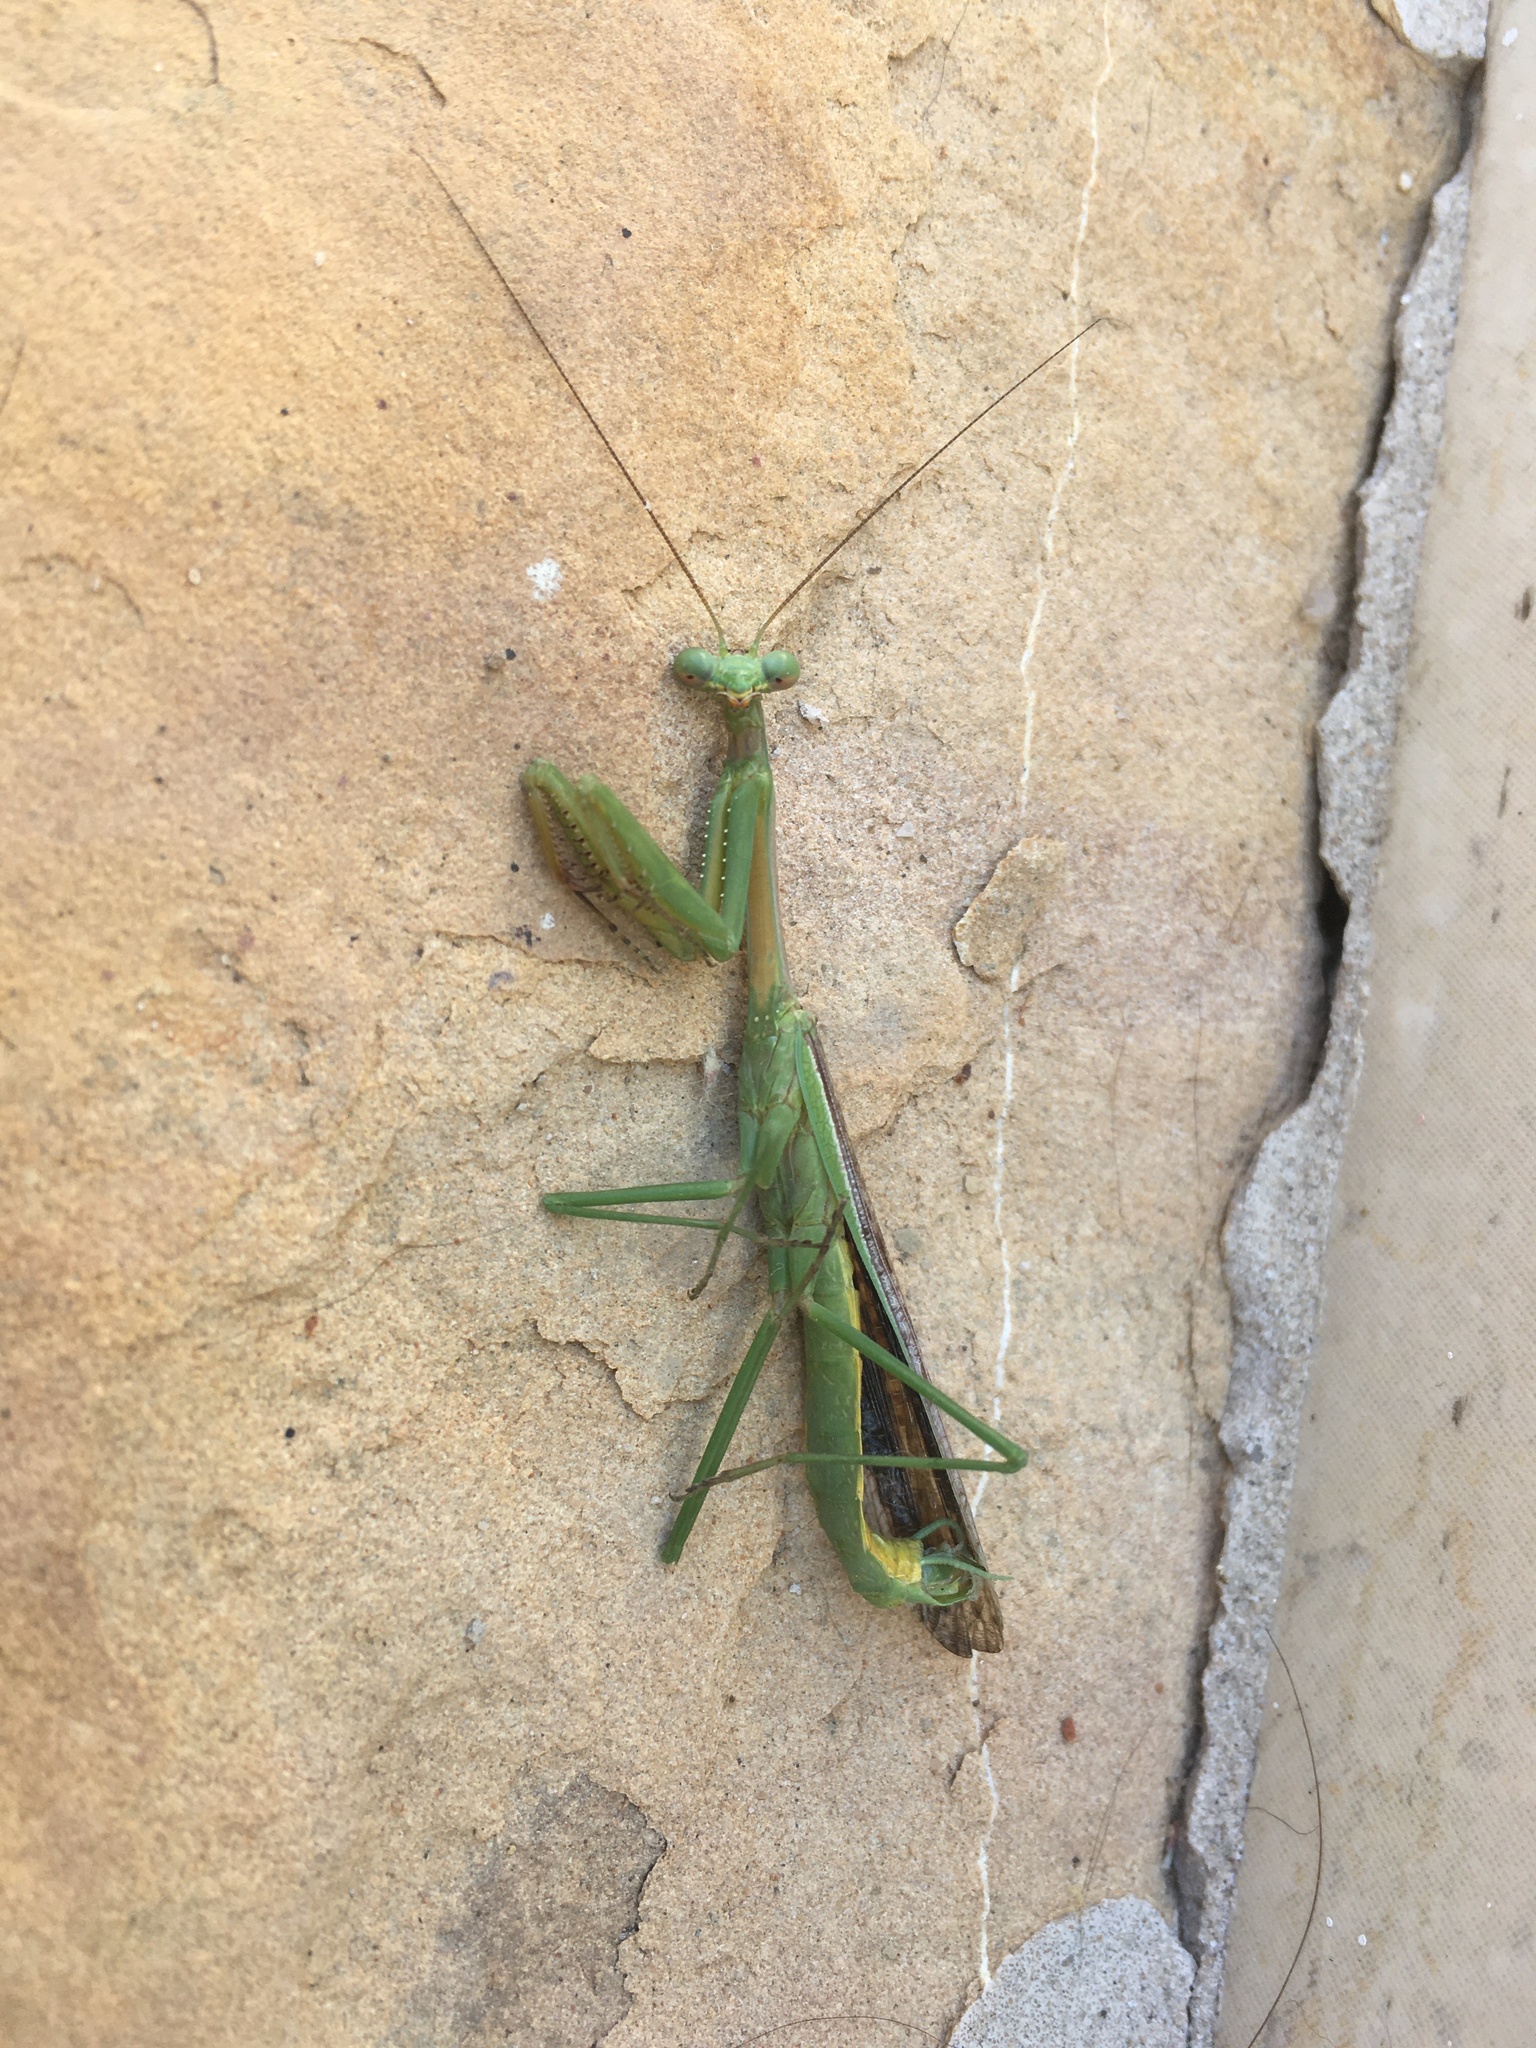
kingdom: Animalia
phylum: Arthropoda
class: Insecta
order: Mantodea
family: Mantidae
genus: Stagmomantis
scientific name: Stagmomantis californica
